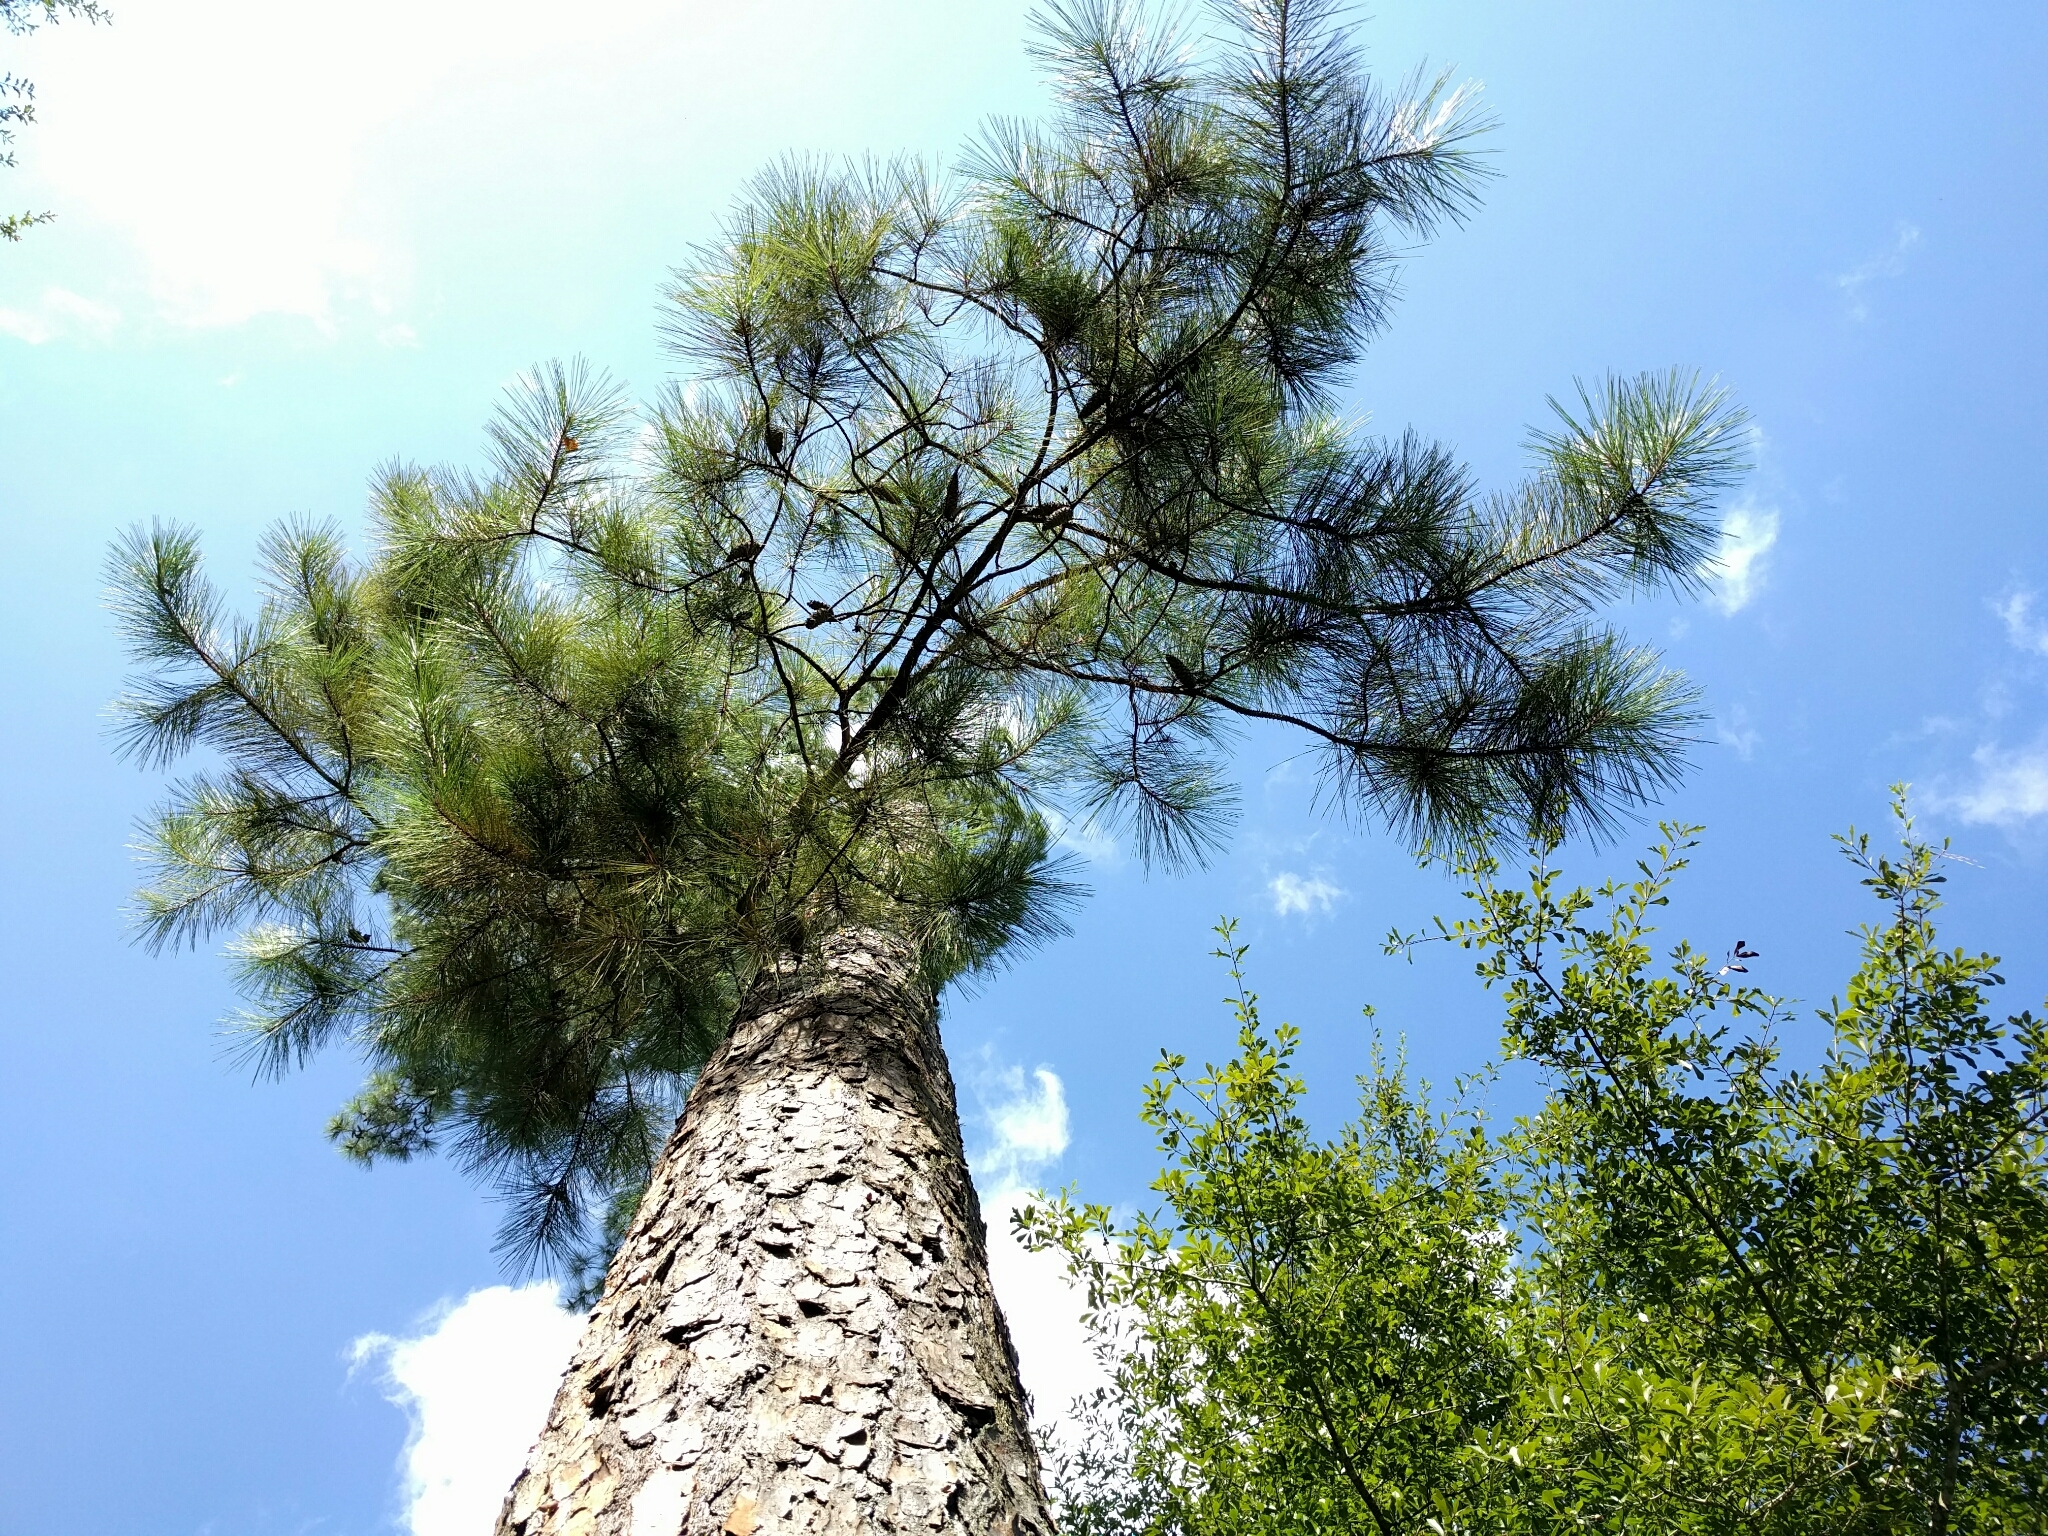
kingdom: Plantae
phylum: Tracheophyta
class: Pinopsida
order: Pinales
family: Pinaceae
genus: Pinus
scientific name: Pinus taeda
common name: Loblolly pine
